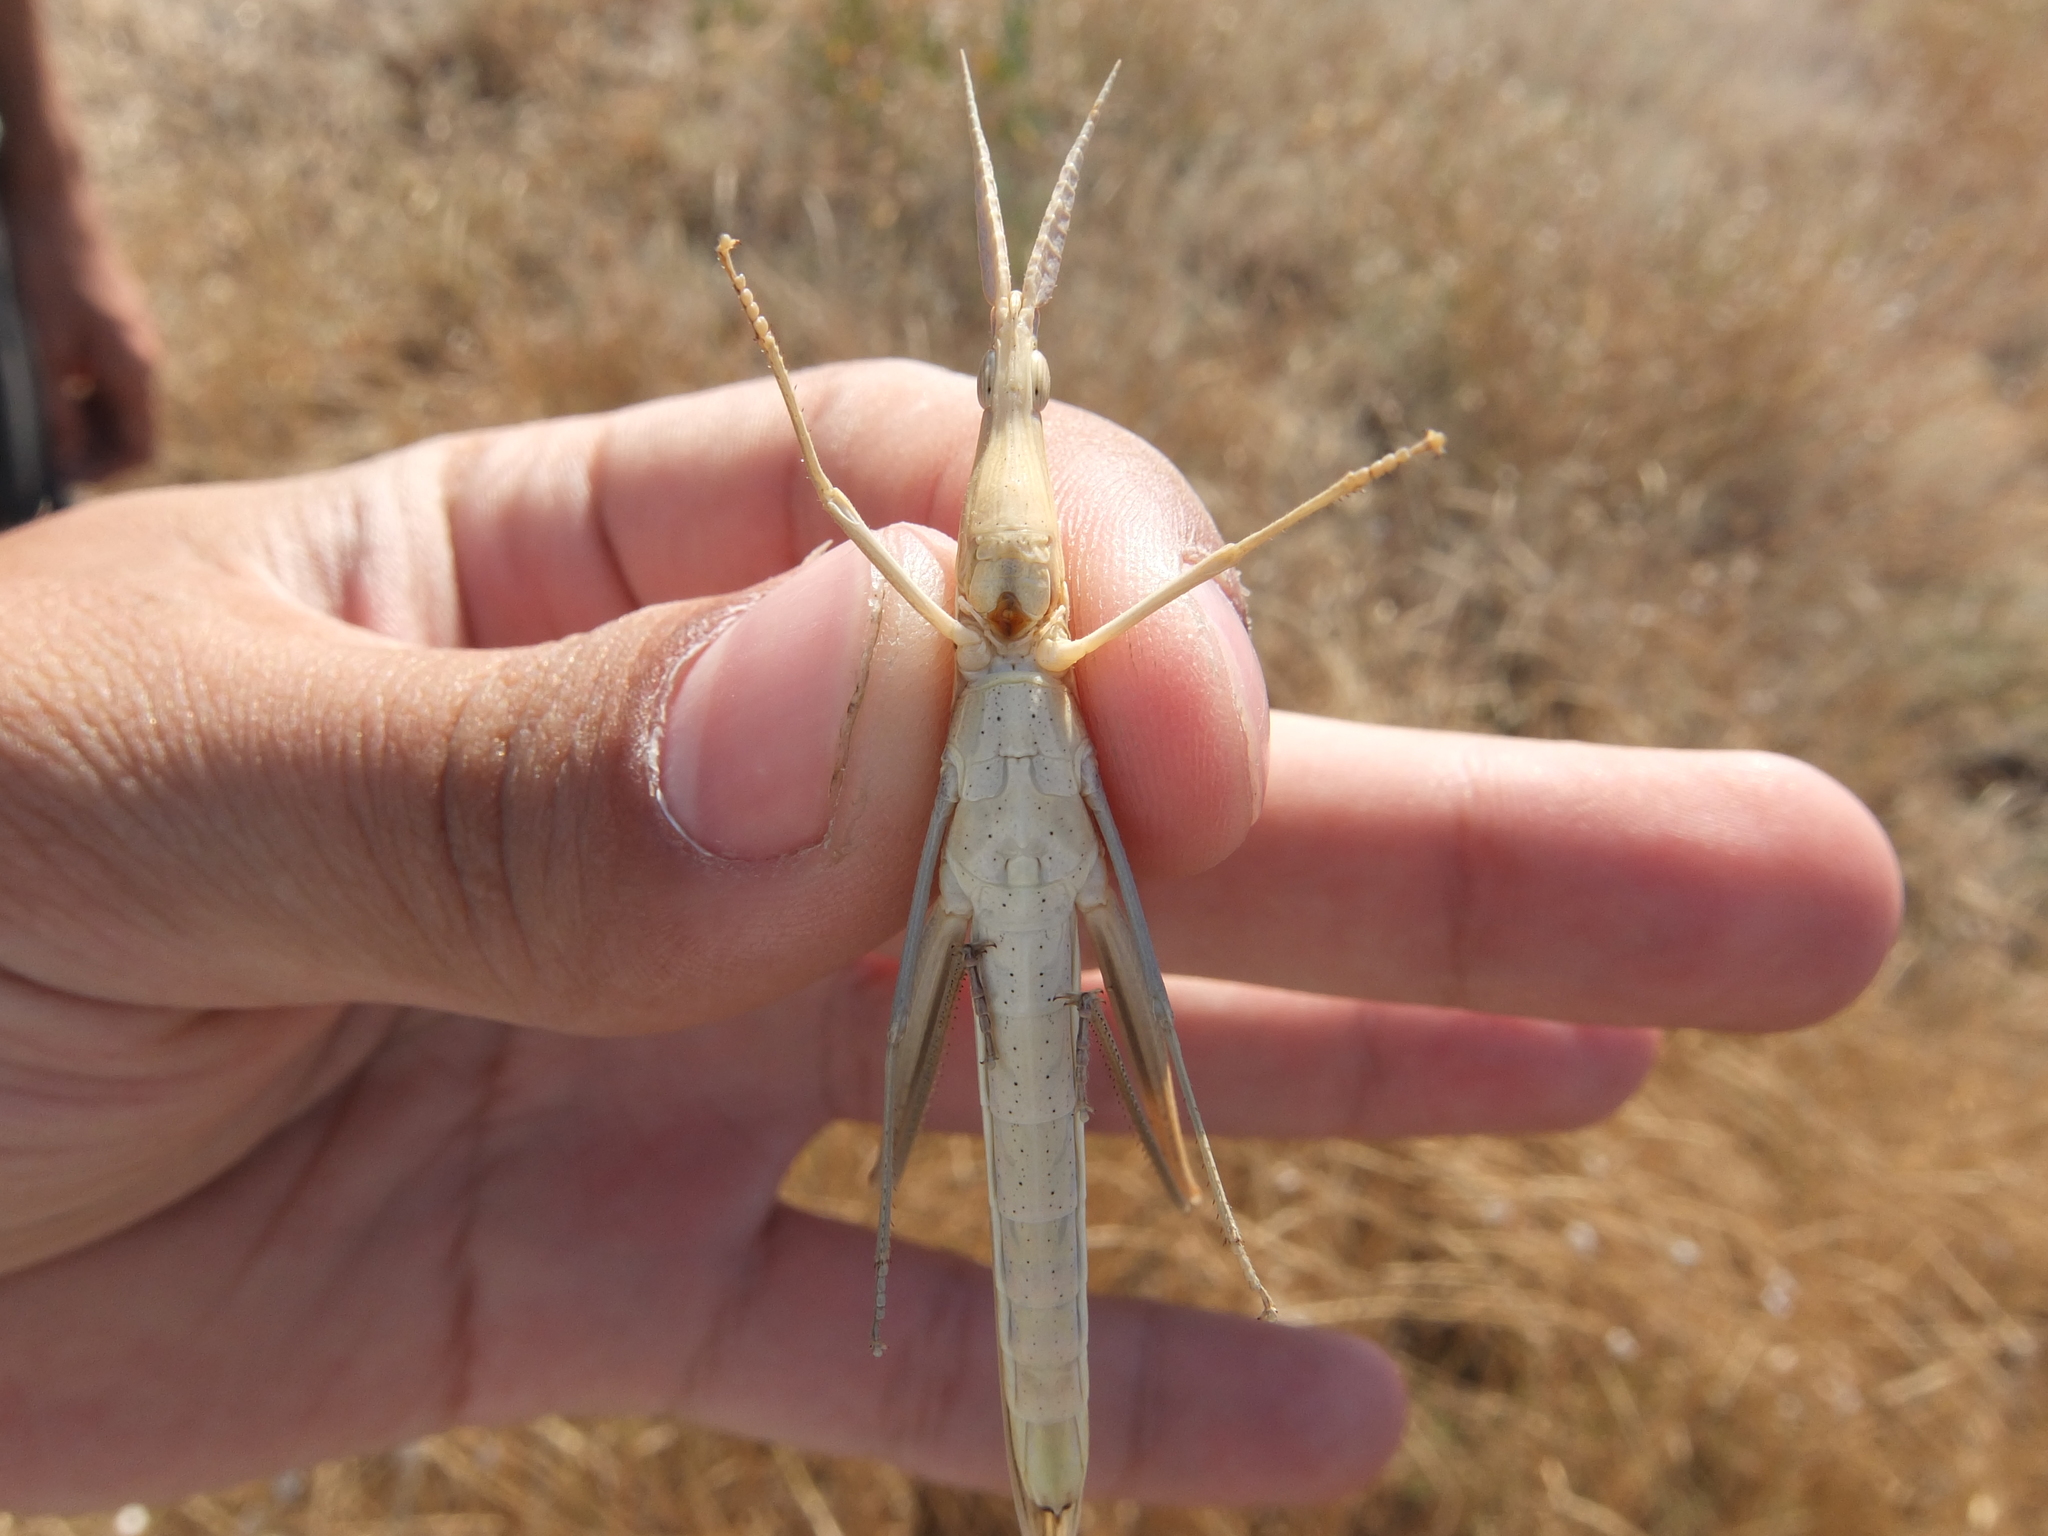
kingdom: Animalia
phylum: Arthropoda
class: Insecta
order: Orthoptera
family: Acrididae
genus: Acrida
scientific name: Acrida ungarica
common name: Common cone-headed grasshopper
